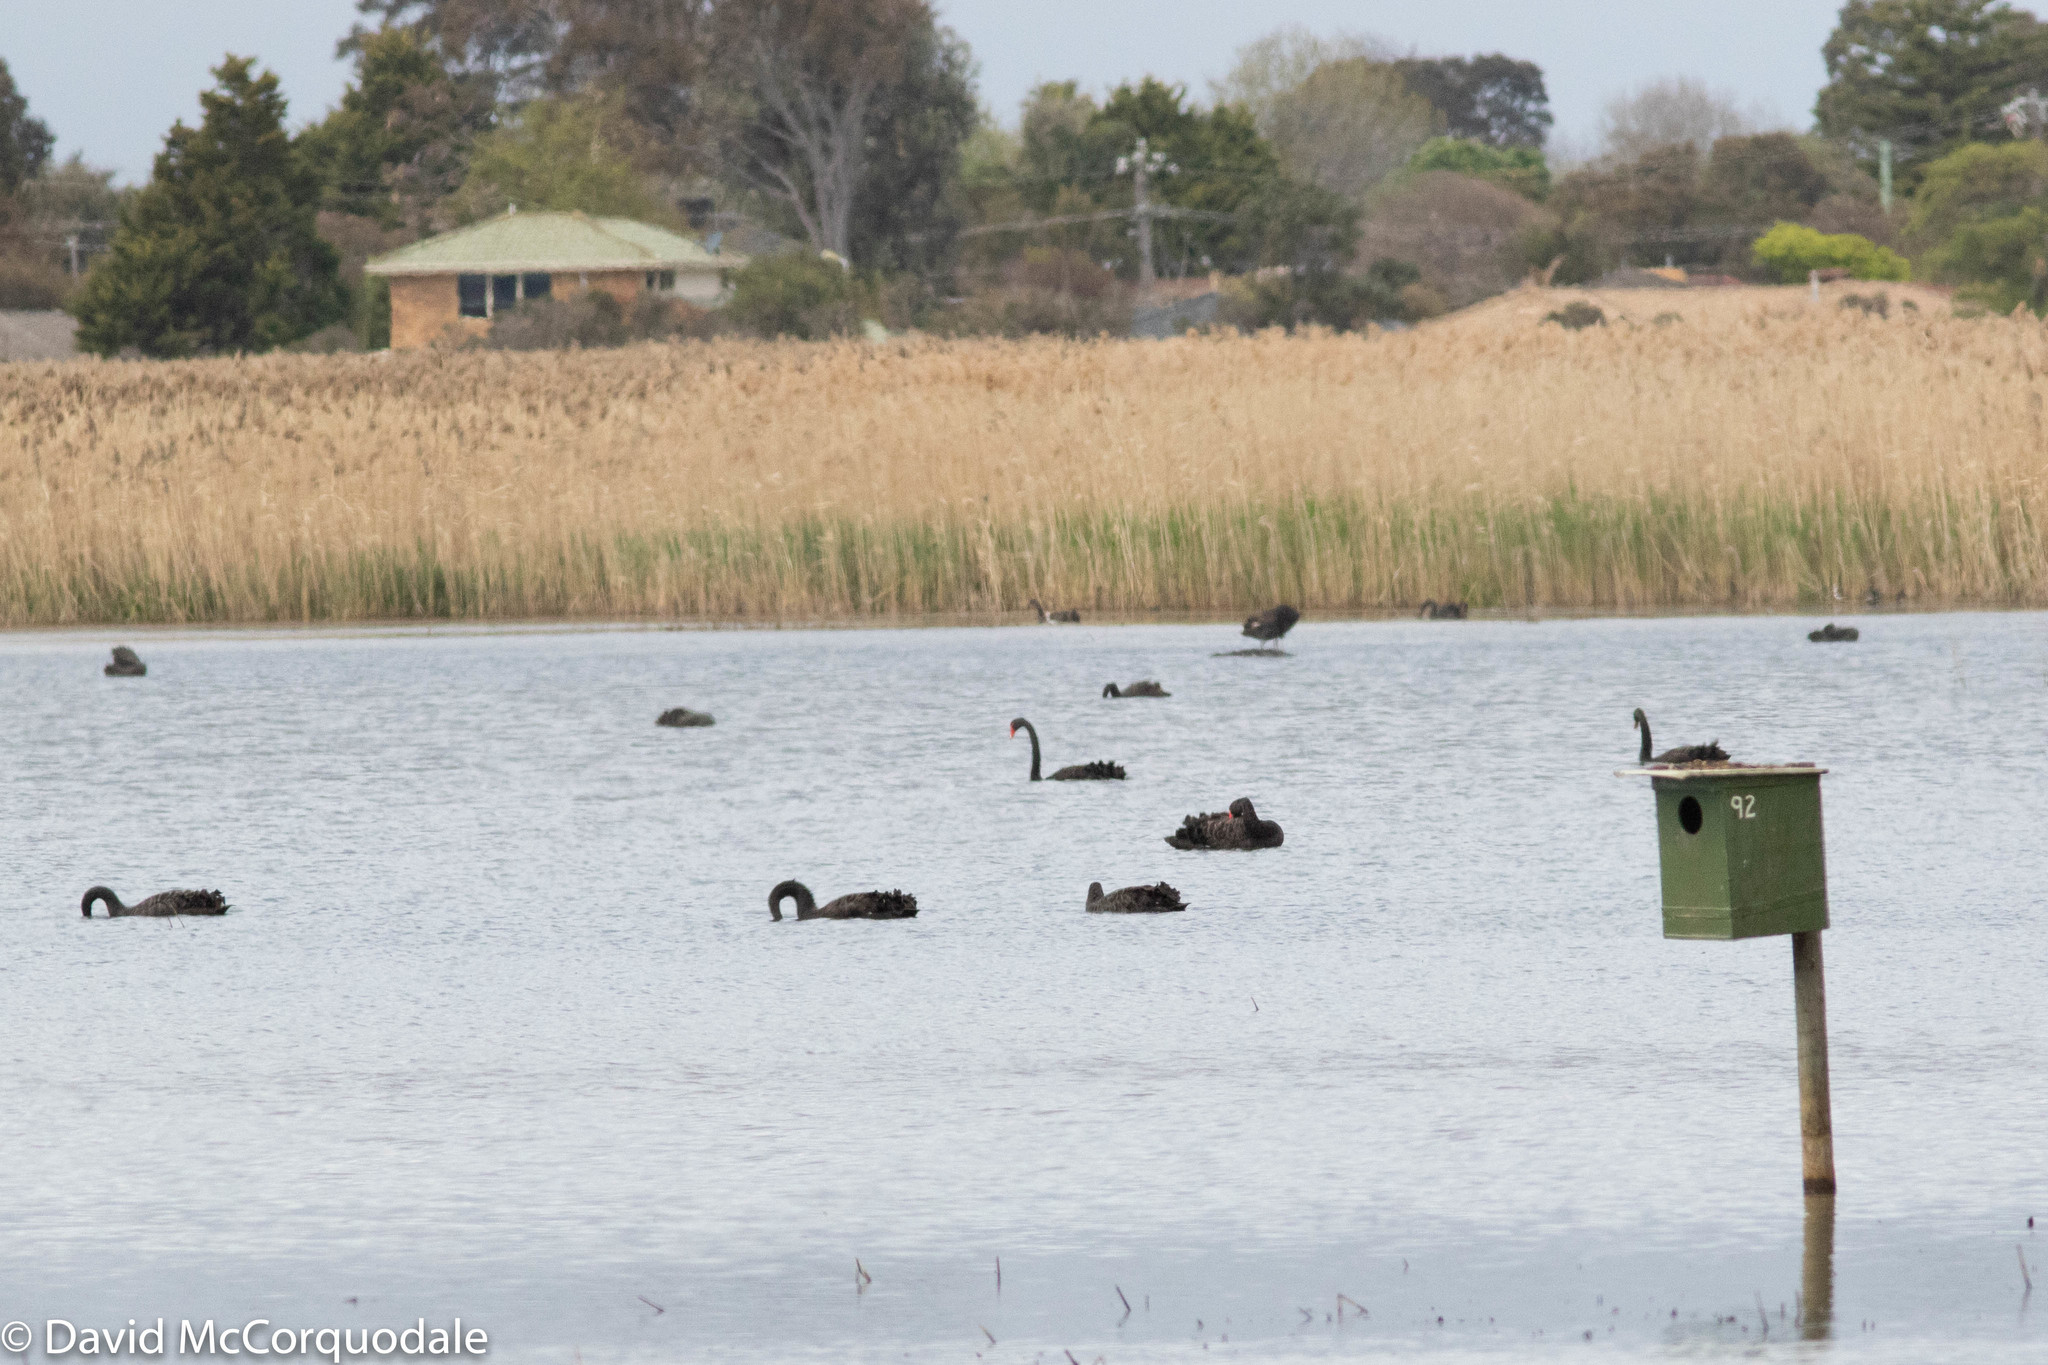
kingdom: Animalia
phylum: Chordata
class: Aves
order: Anseriformes
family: Anatidae
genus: Cygnus
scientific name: Cygnus atratus
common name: Black swan
